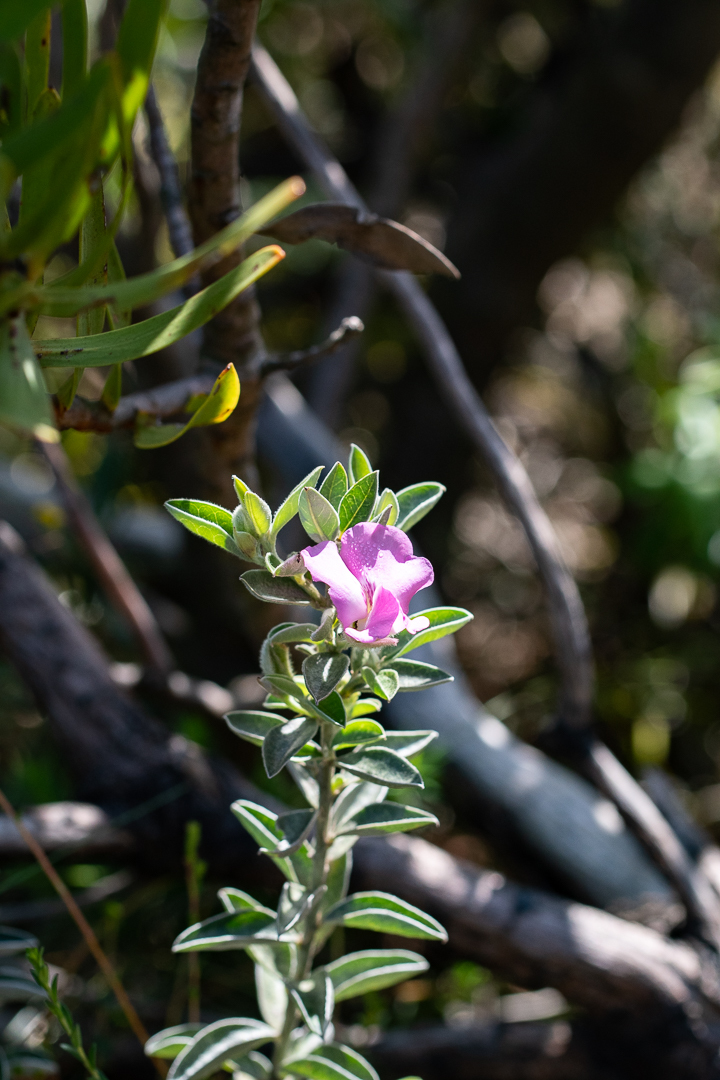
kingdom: Plantae
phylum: Tracheophyta
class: Magnoliopsida
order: Fabales
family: Fabaceae
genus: Podalyria
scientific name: Podalyria calyptrata
